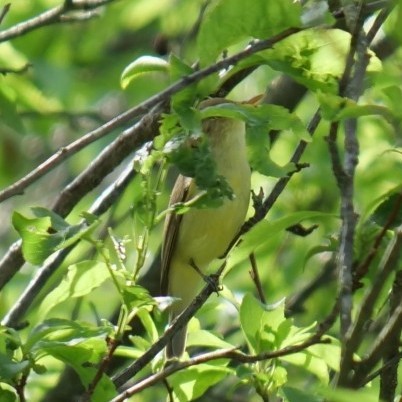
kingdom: Animalia
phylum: Chordata
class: Aves
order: Passeriformes
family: Acrocephalidae
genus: Hippolais
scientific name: Hippolais polyglotta
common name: Melodious warbler
